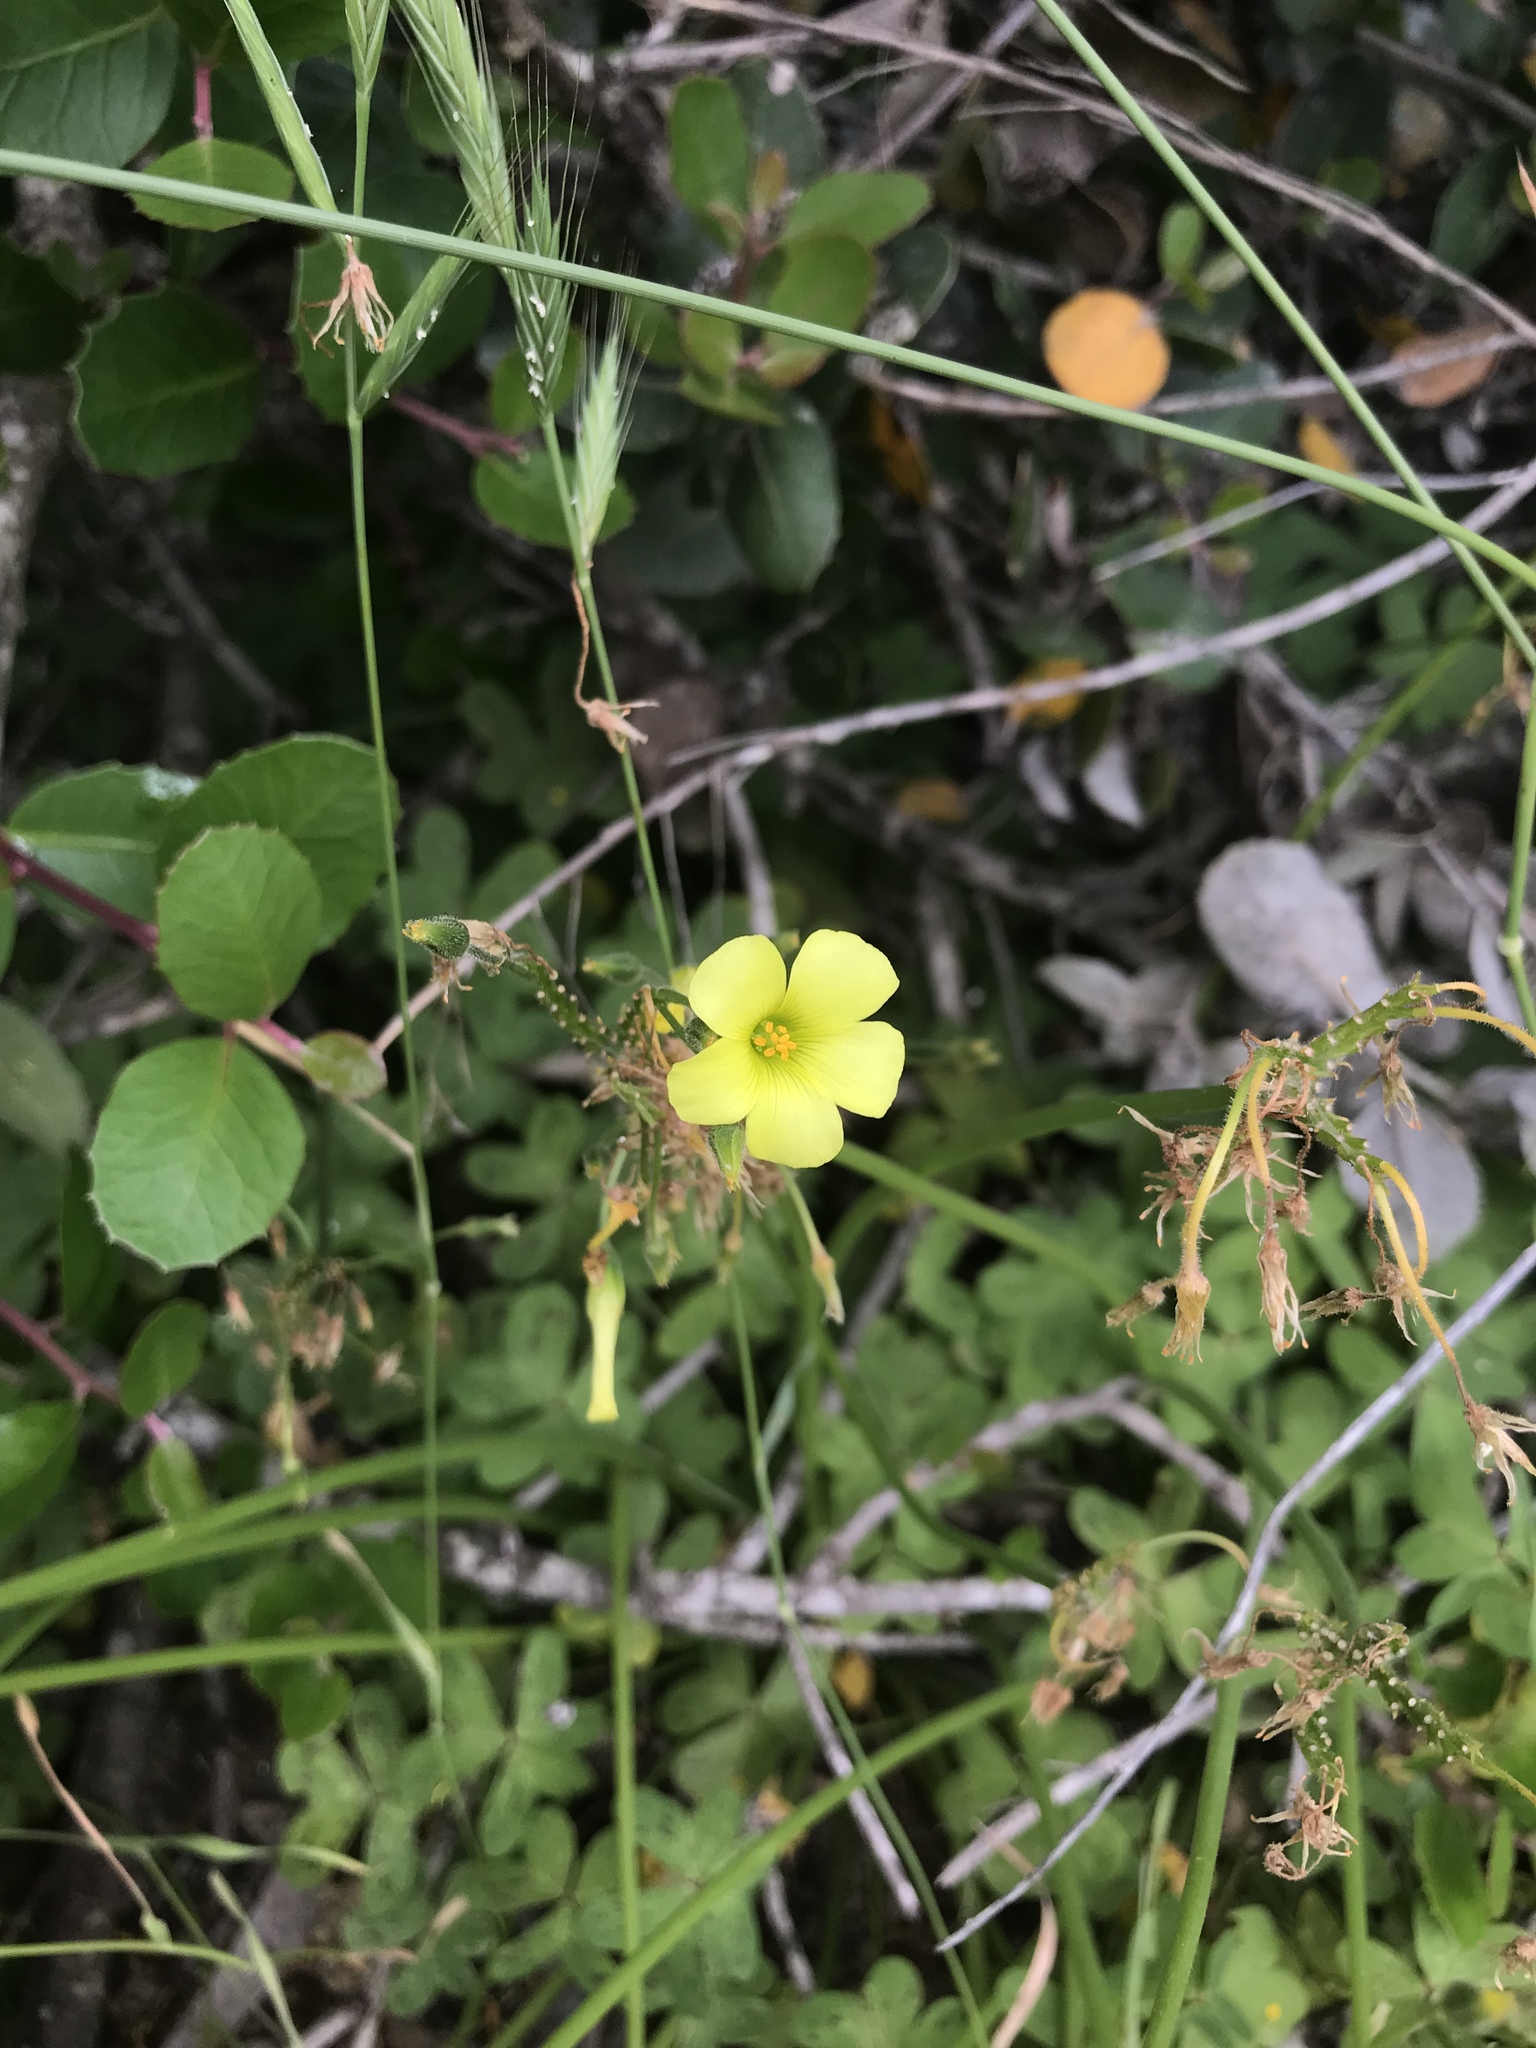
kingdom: Plantae
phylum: Tracheophyta
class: Magnoliopsida
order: Oxalidales
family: Oxalidaceae
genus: Oxalis
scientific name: Oxalis pes-caprae
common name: Bermuda-buttercup
